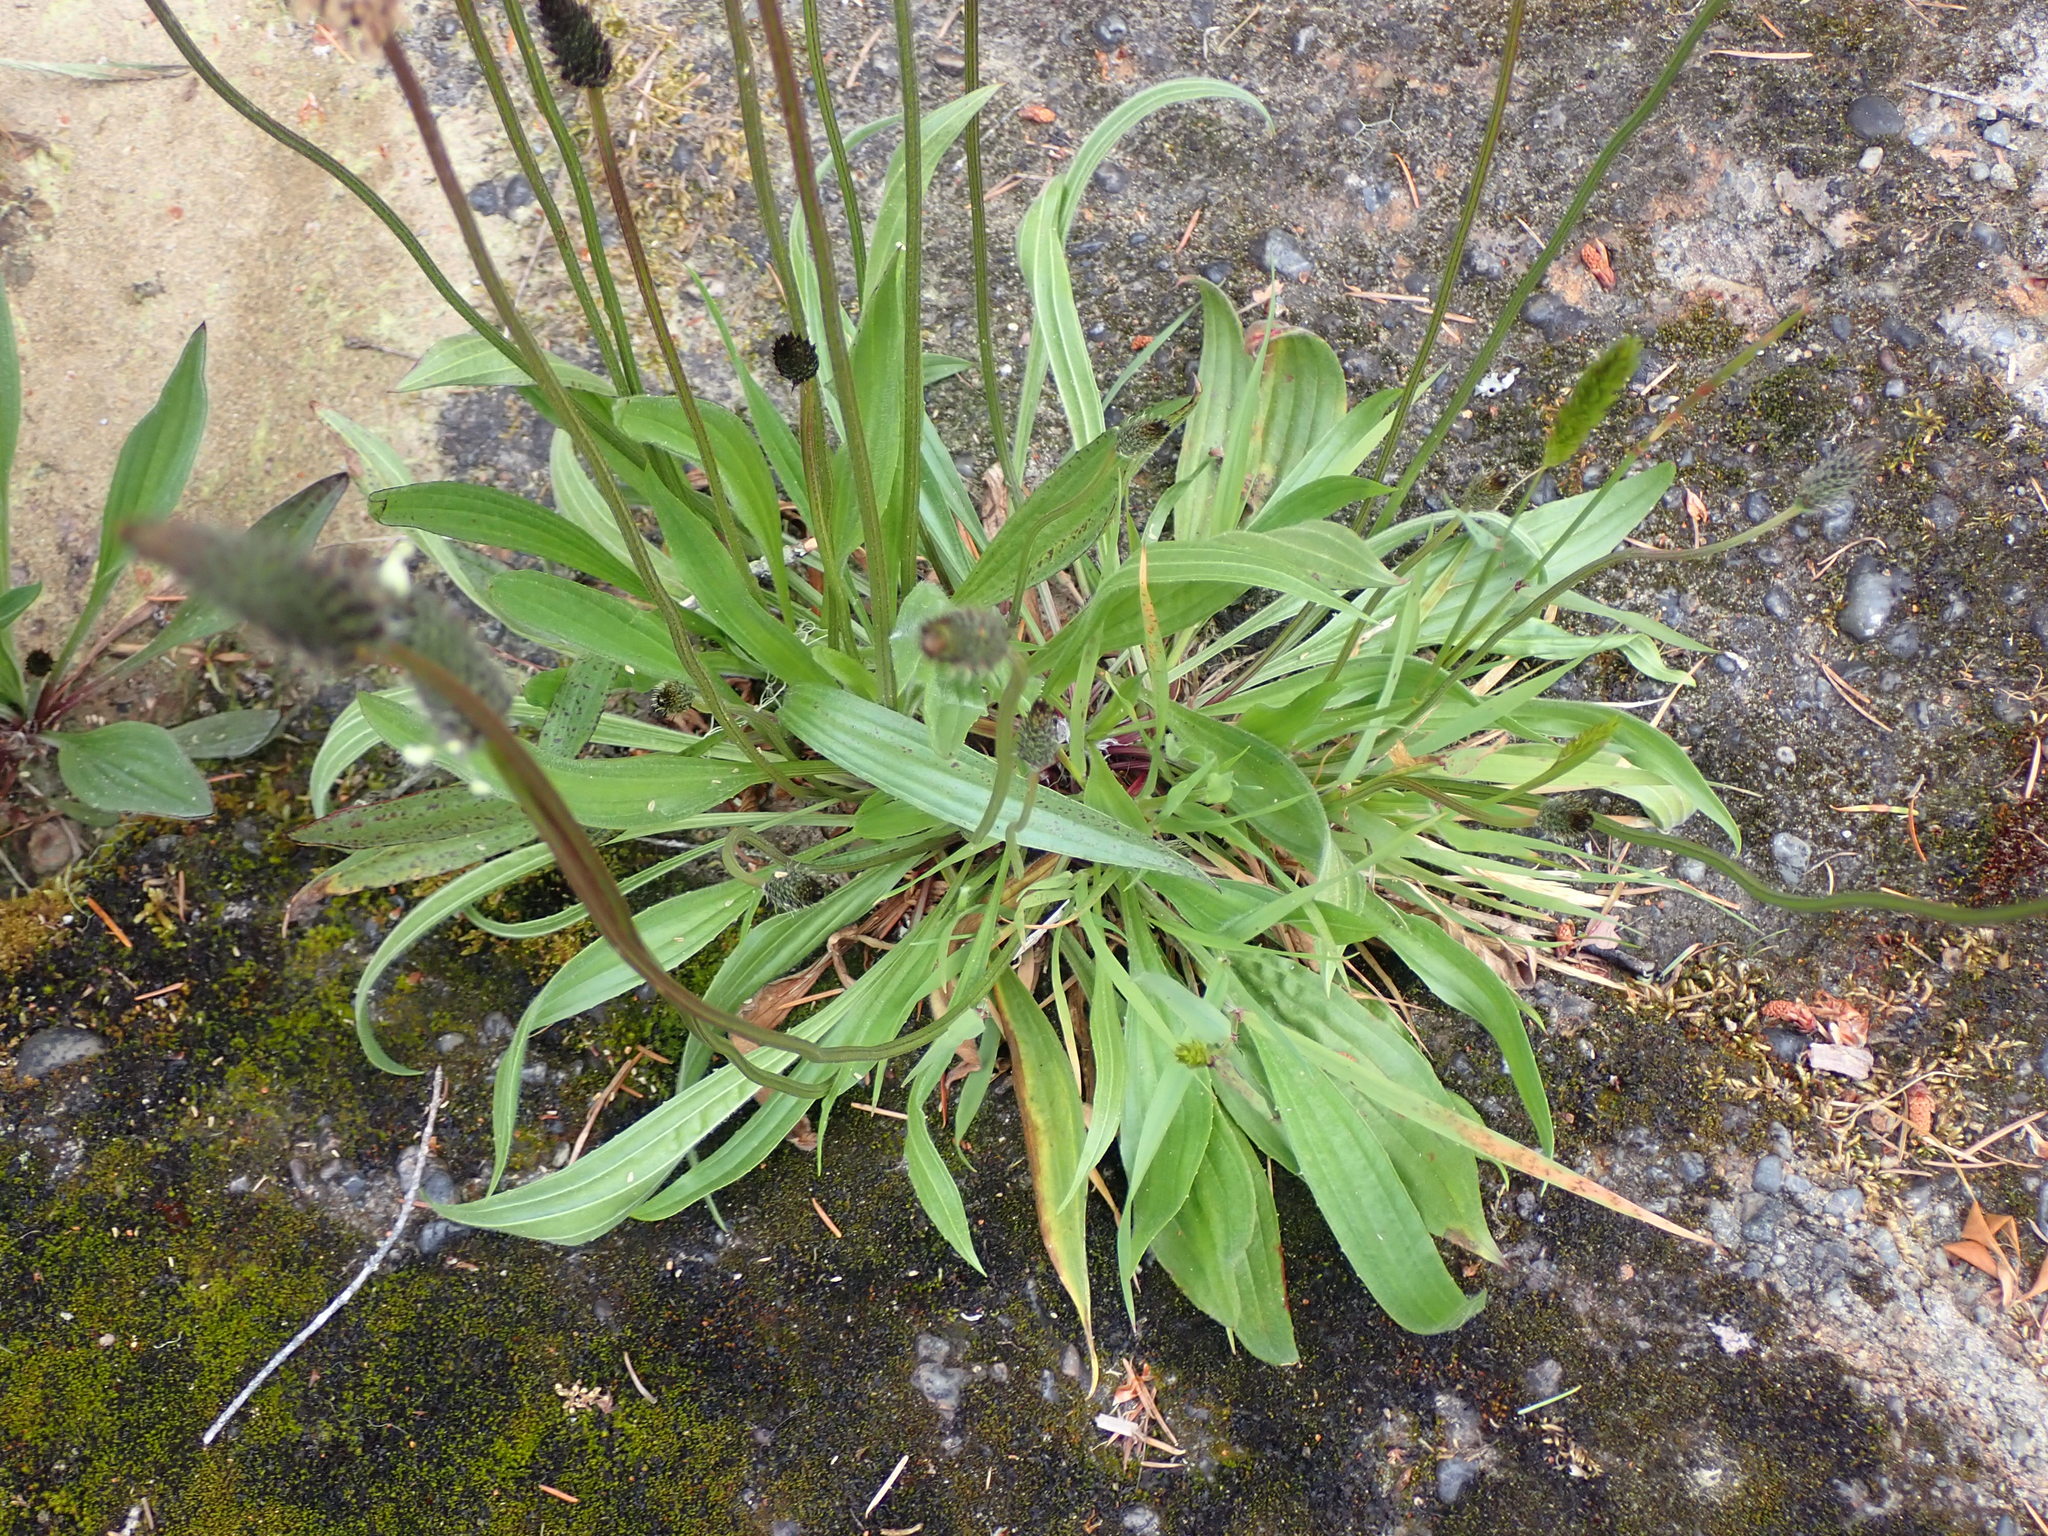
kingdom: Plantae
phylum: Tracheophyta
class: Magnoliopsida
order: Lamiales
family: Plantaginaceae
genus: Plantago
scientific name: Plantago lanceolata
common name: Ribwort plantain
